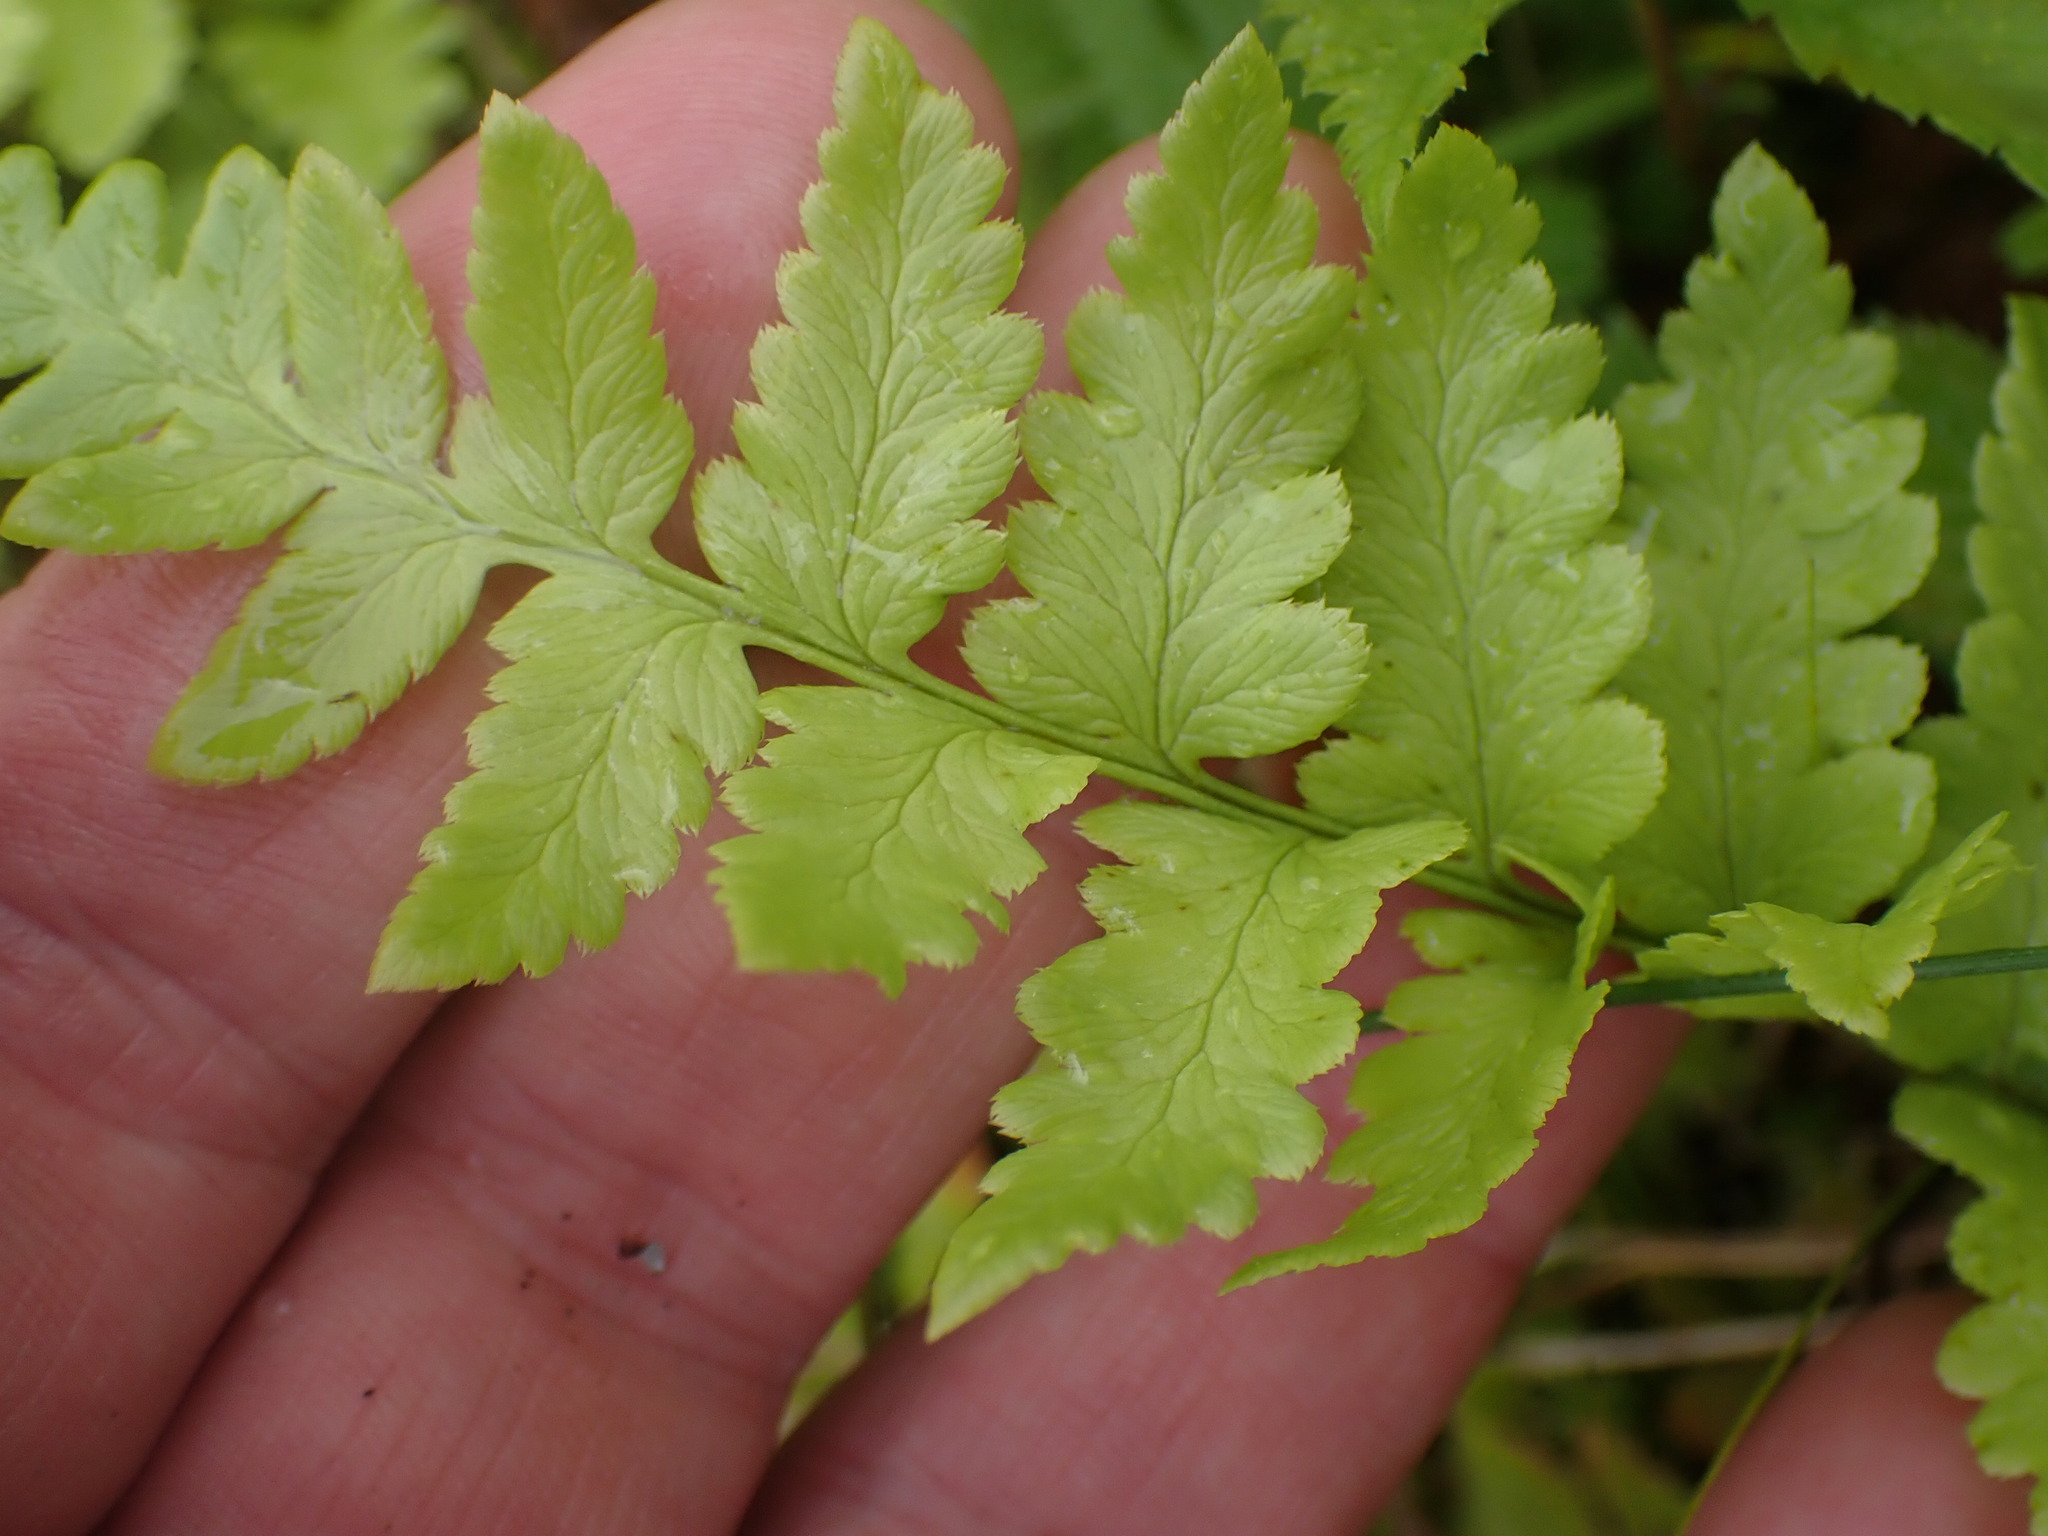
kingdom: Plantae
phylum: Tracheophyta
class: Polypodiopsida
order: Polypodiales
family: Dryopteridaceae
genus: Dryopteris
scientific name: Dryopteris cristata
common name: Crested wood fern
